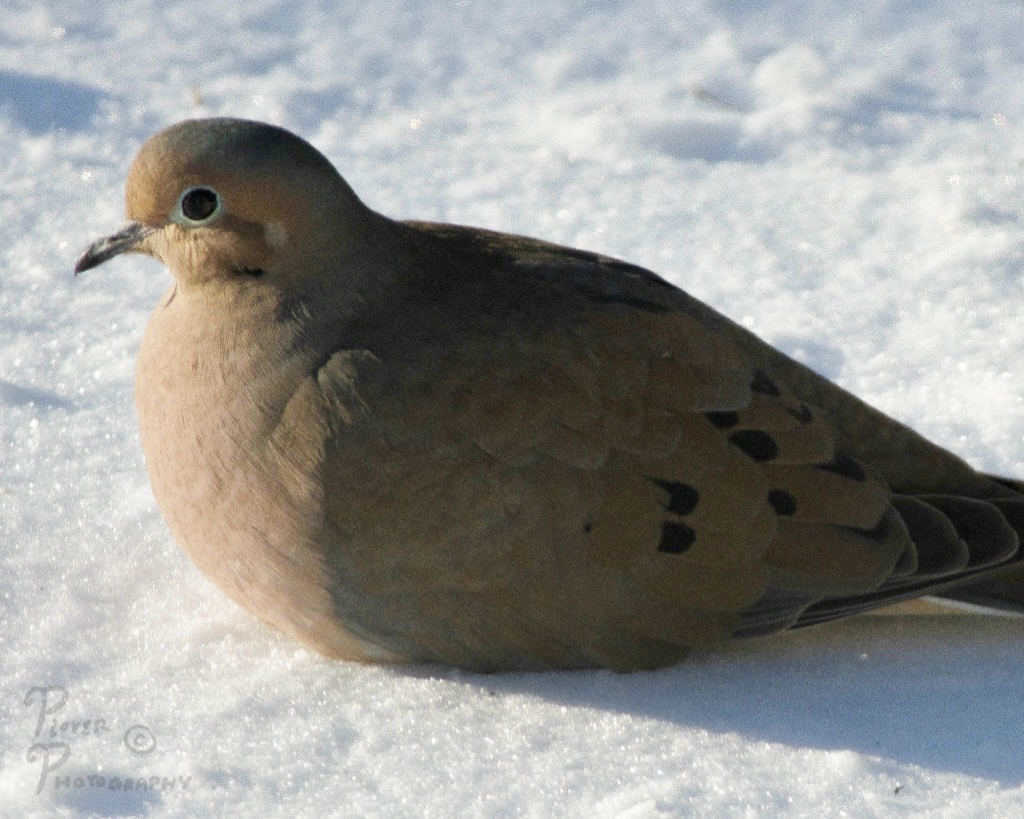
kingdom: Animalia
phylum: Chordata
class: Aves
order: Columbiformes
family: Columbidae
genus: Zenaida
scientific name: Zenaida macroura
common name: Mourning dove
